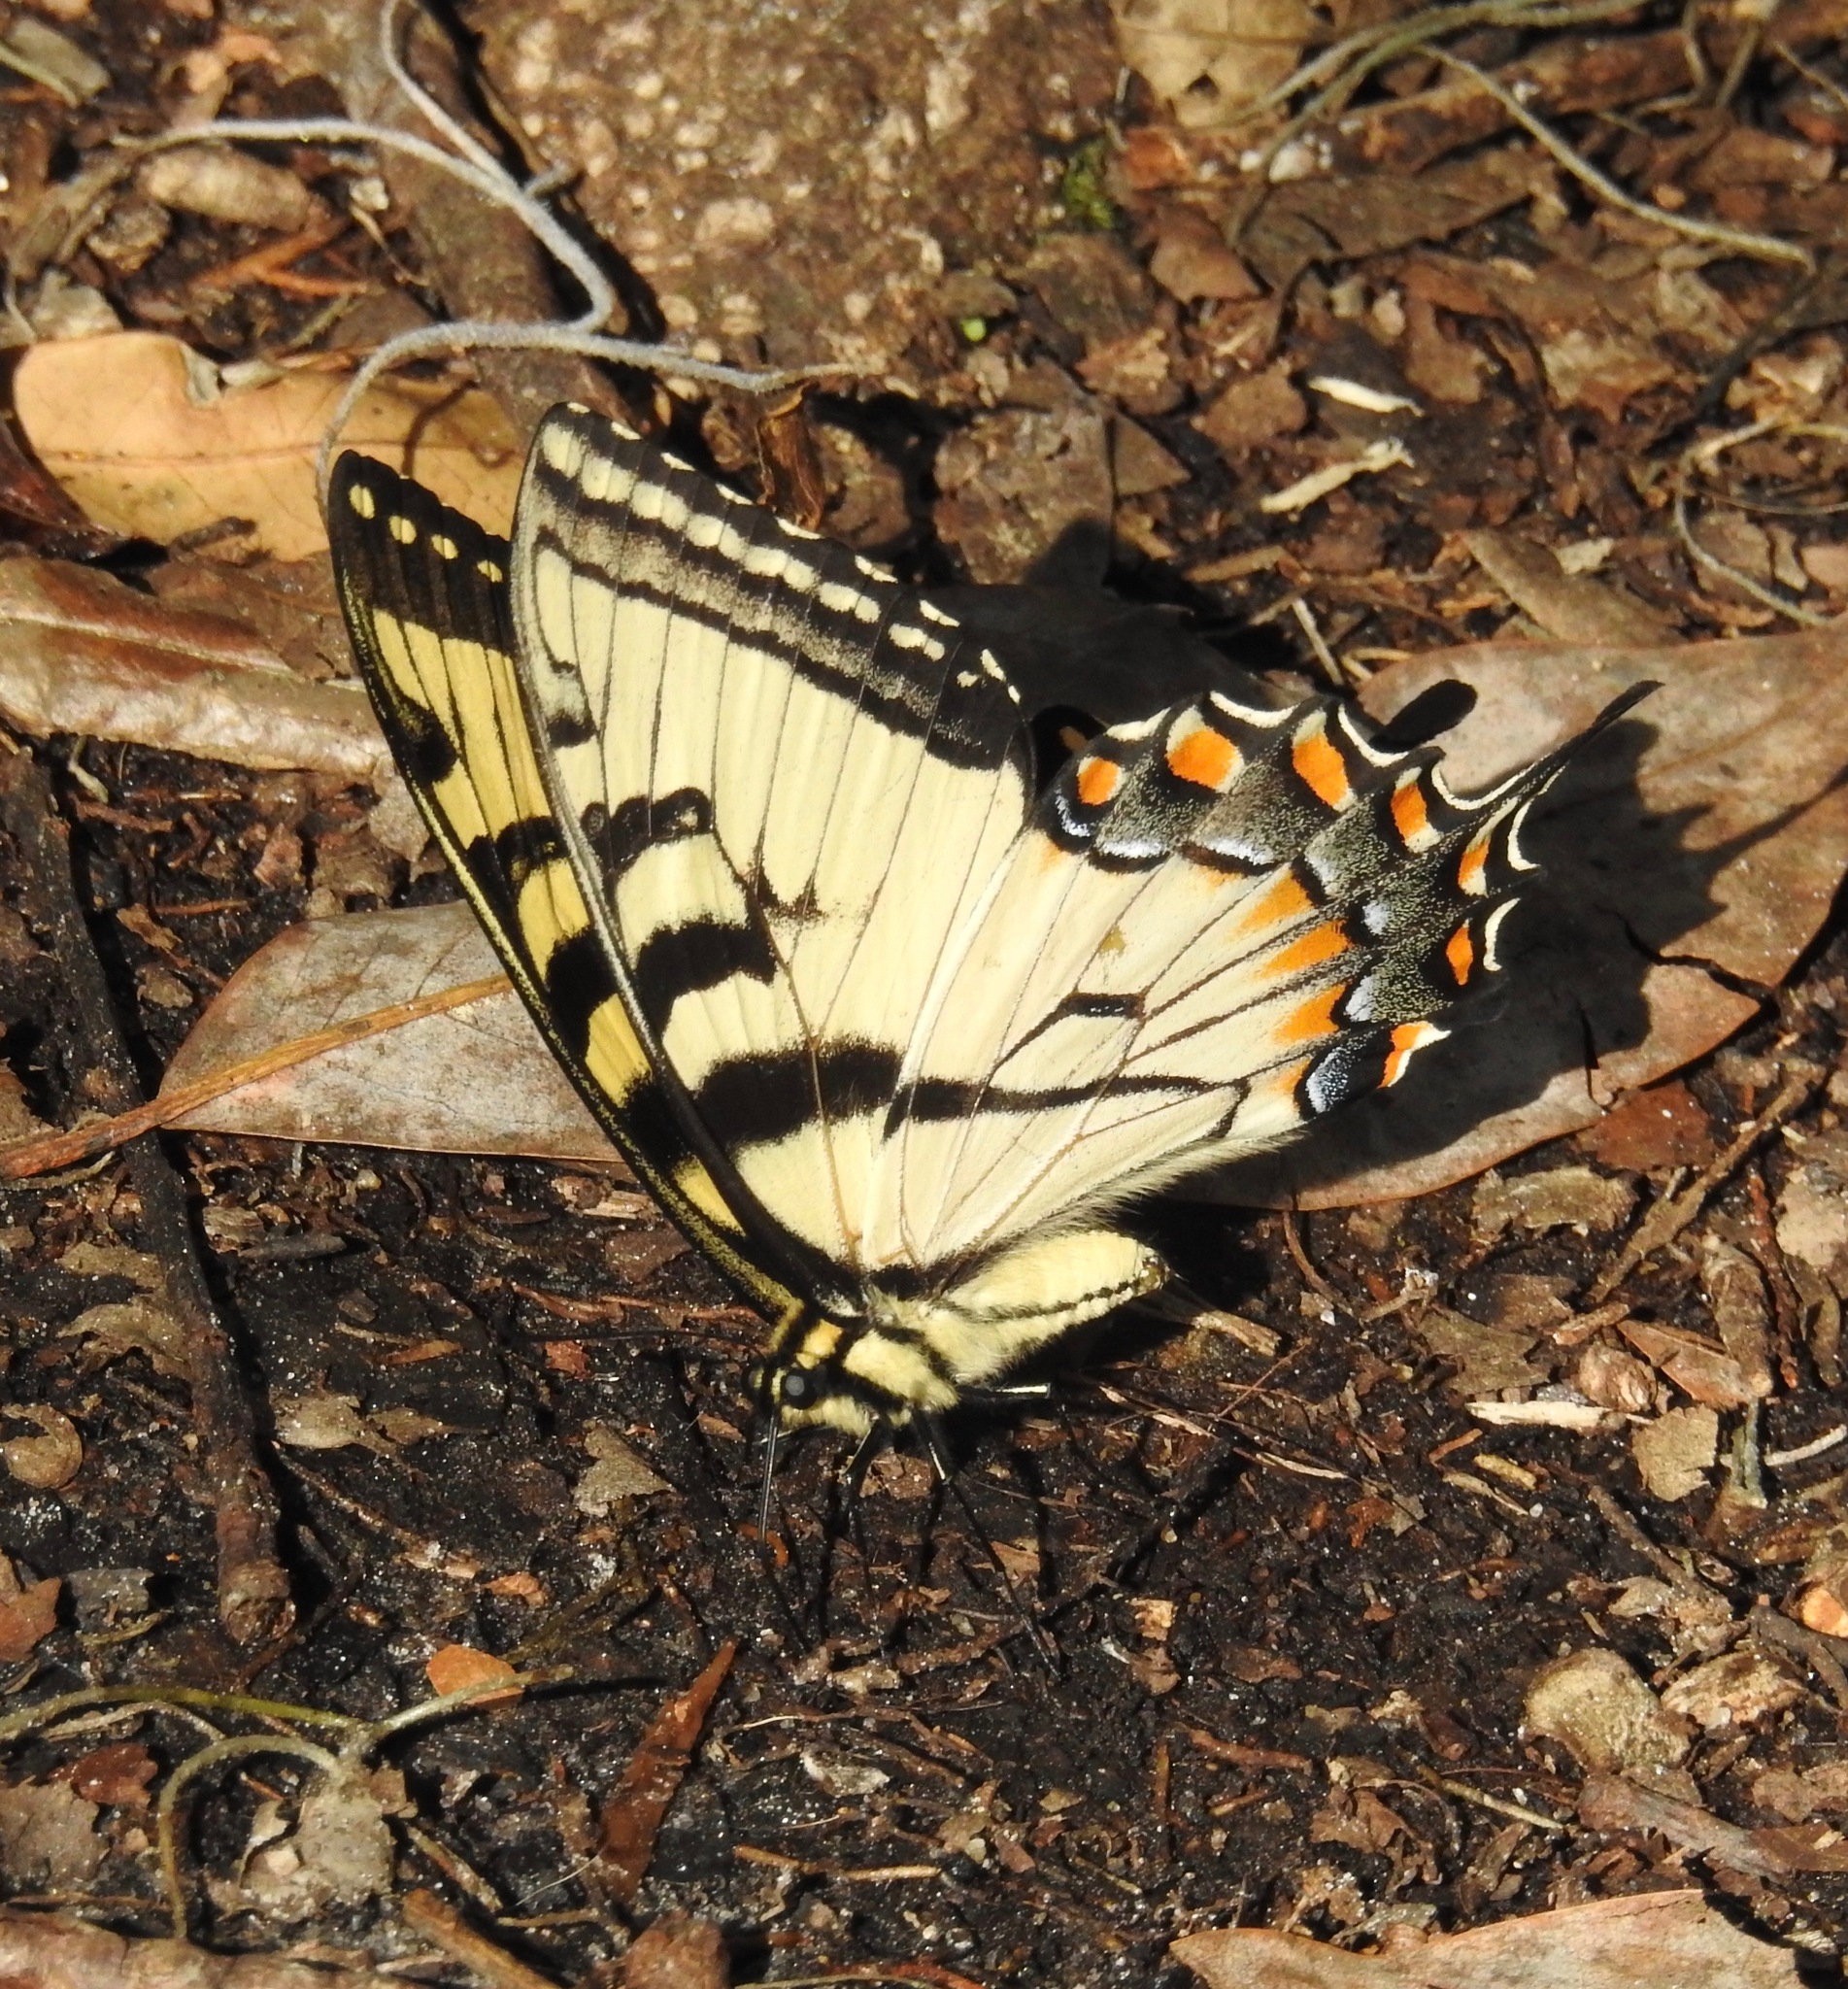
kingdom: Animalia
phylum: Arthropoda
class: Insecta
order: Lepidoptera
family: Papilionidae
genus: Papilio
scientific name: Papilio glaucus
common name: Tiger swallowtail
